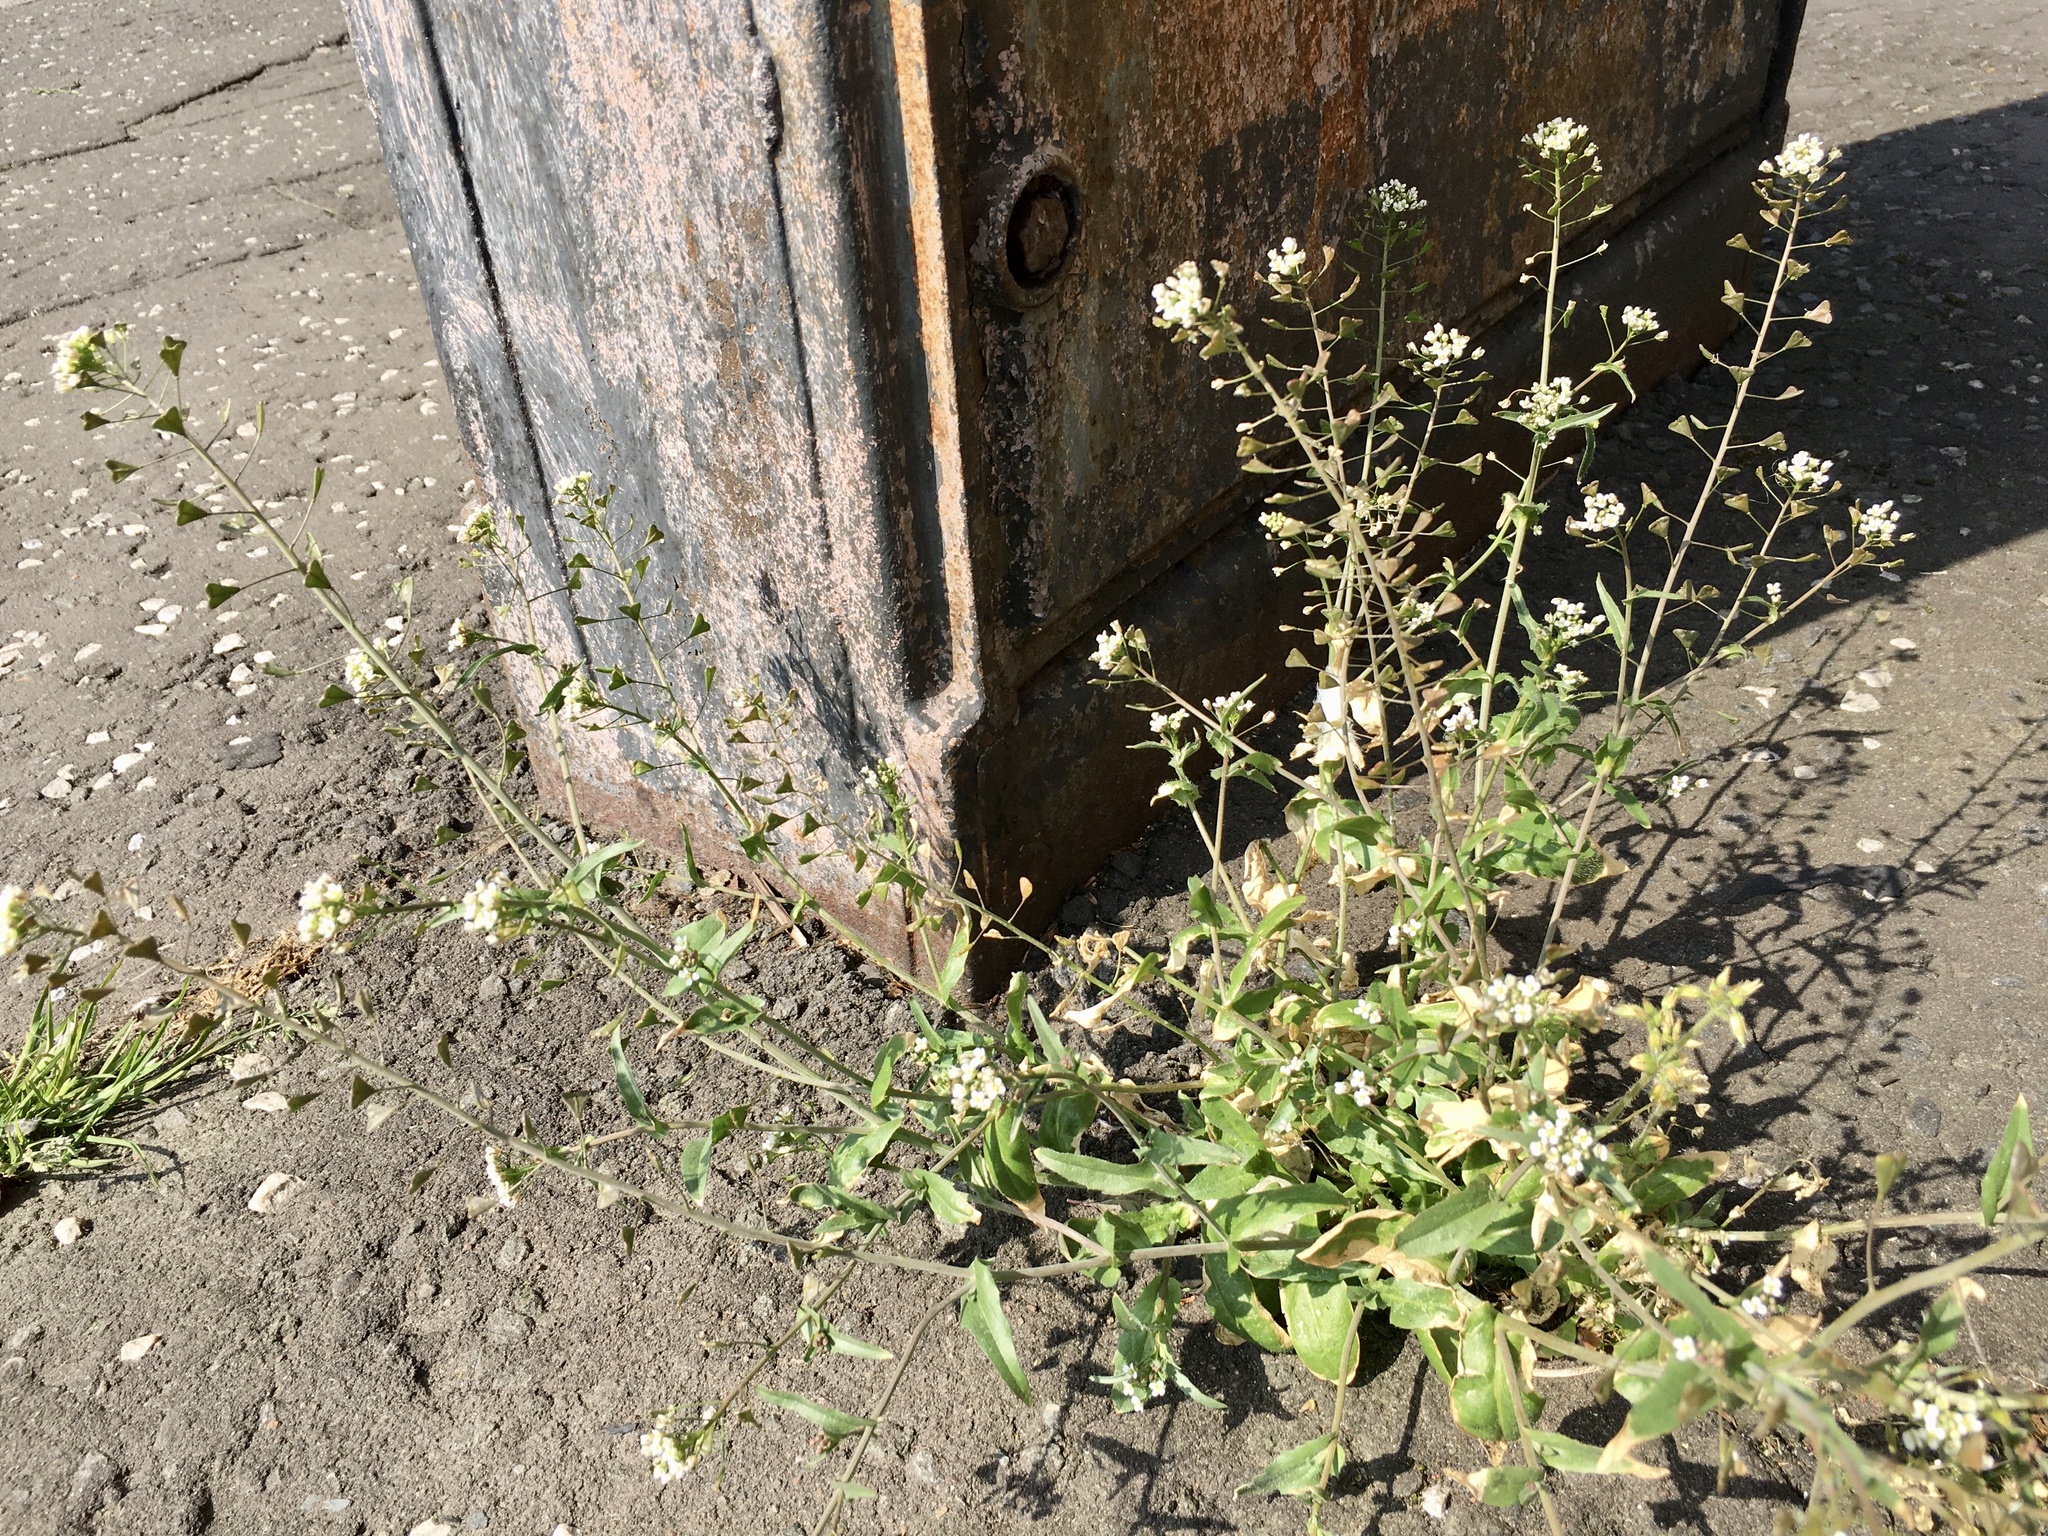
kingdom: Plantae
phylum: Tracheophyta
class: Magnoliopsida
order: Brassicales
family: Brassicaceae
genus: Capsella
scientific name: Capsella bursa-pastoris
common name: Shepherd's purse
